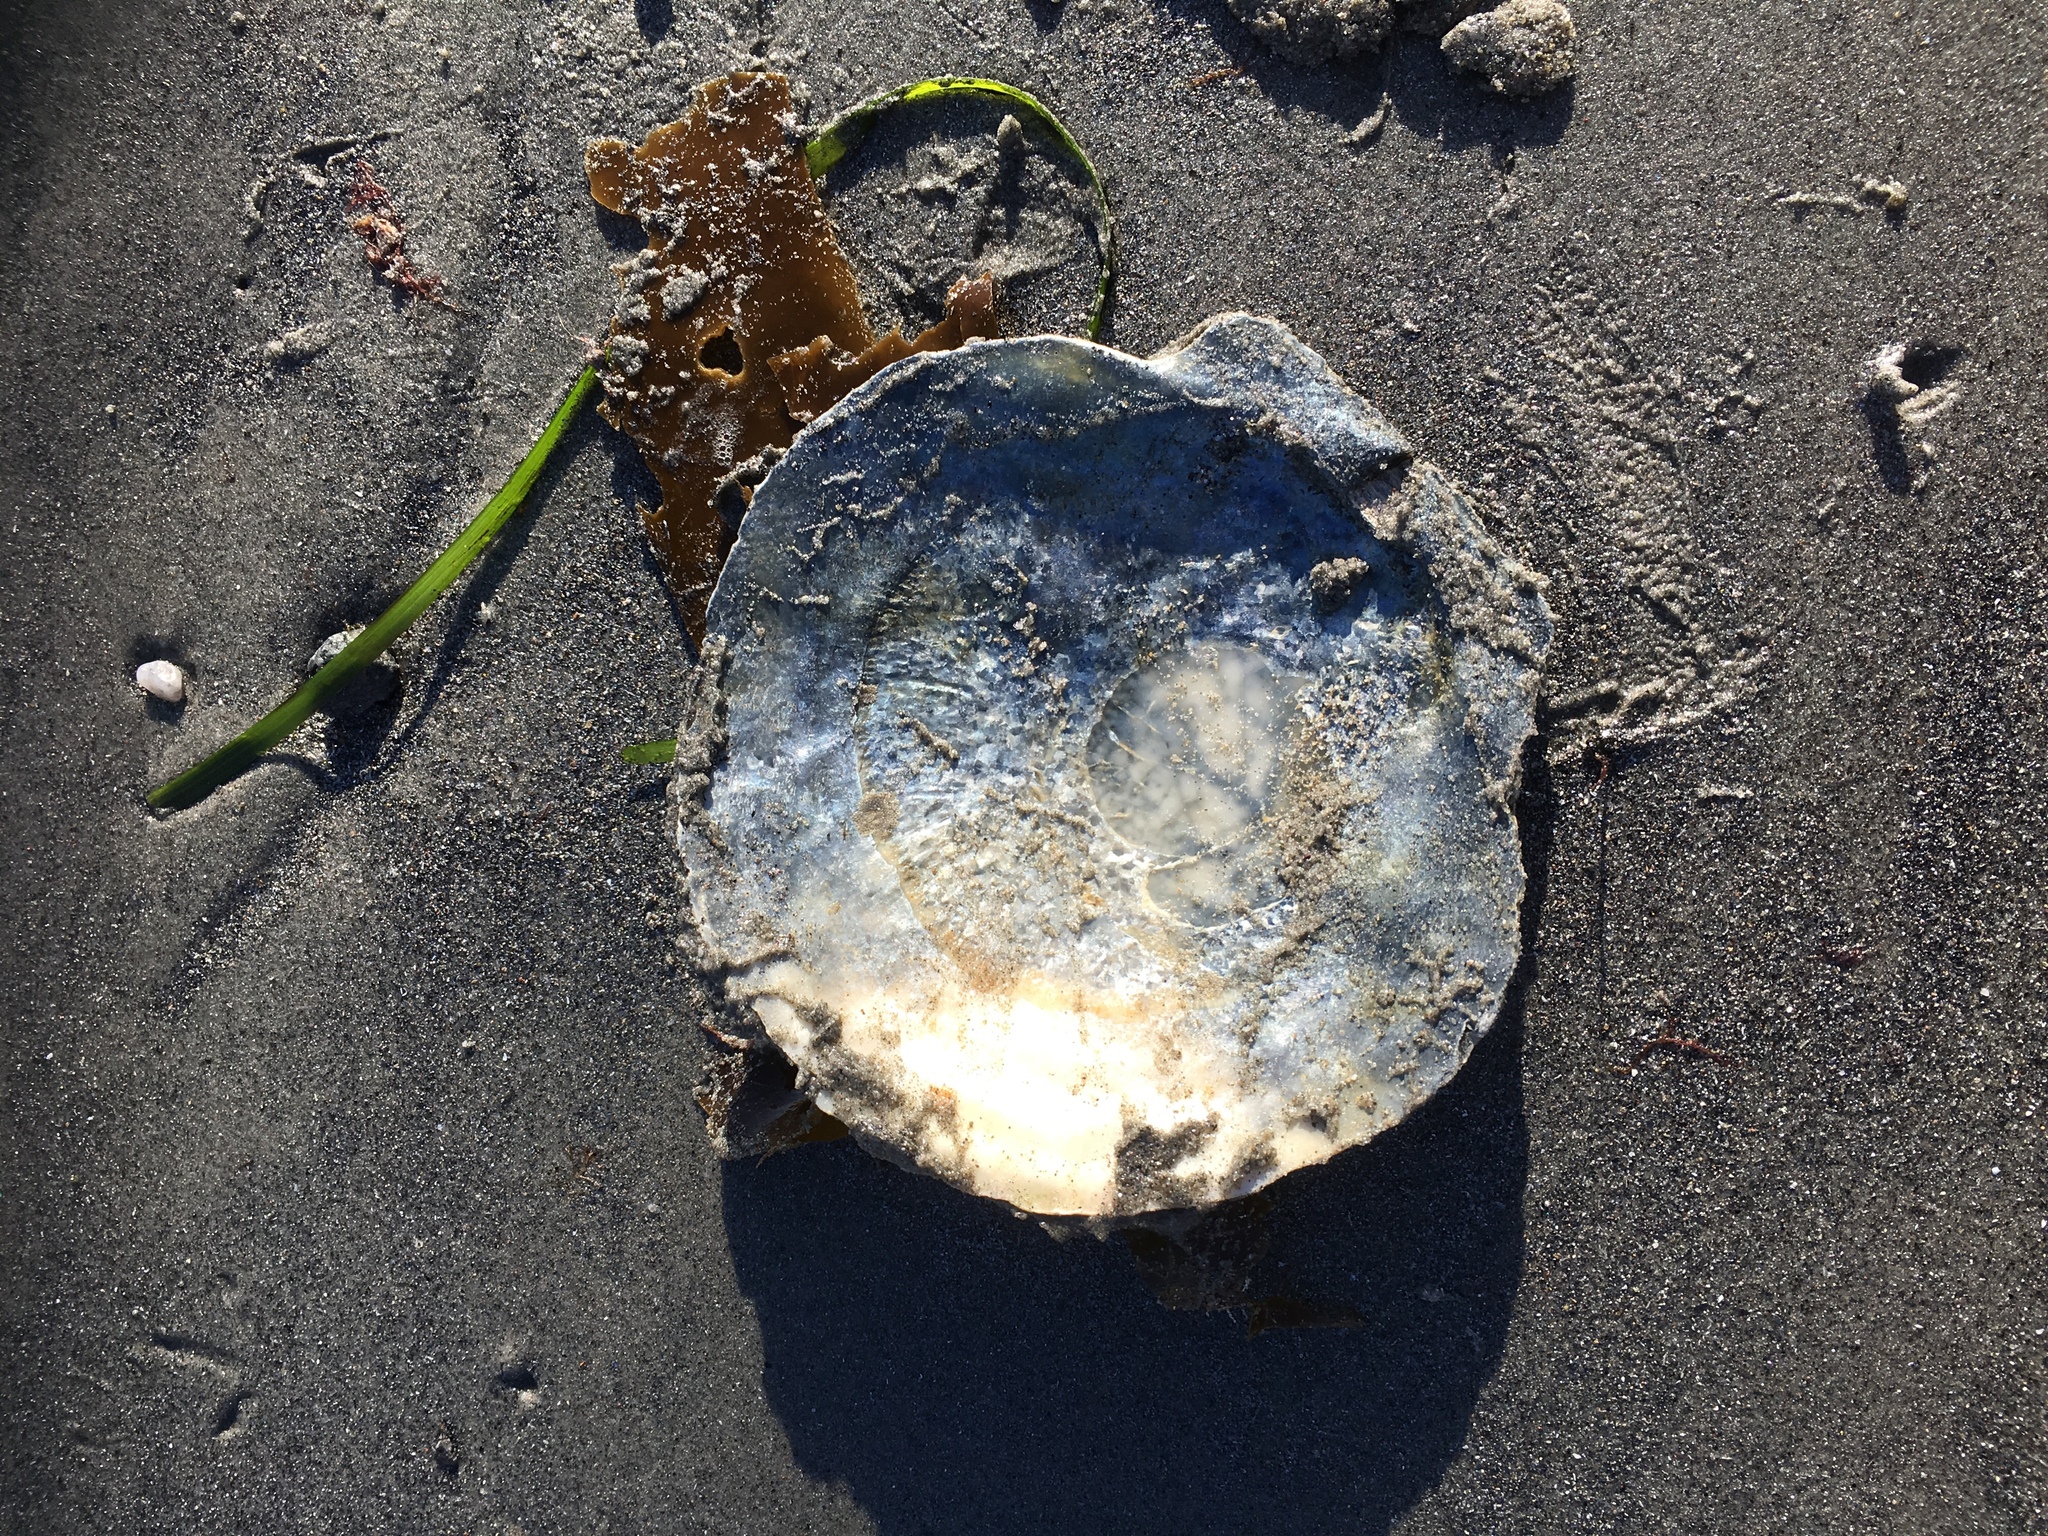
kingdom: Animalia
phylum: Mollusca
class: Bivalvia
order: Pectinida
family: Pectinidae
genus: Placopecten
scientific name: Placopecten magellanicus
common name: American sea scallop
